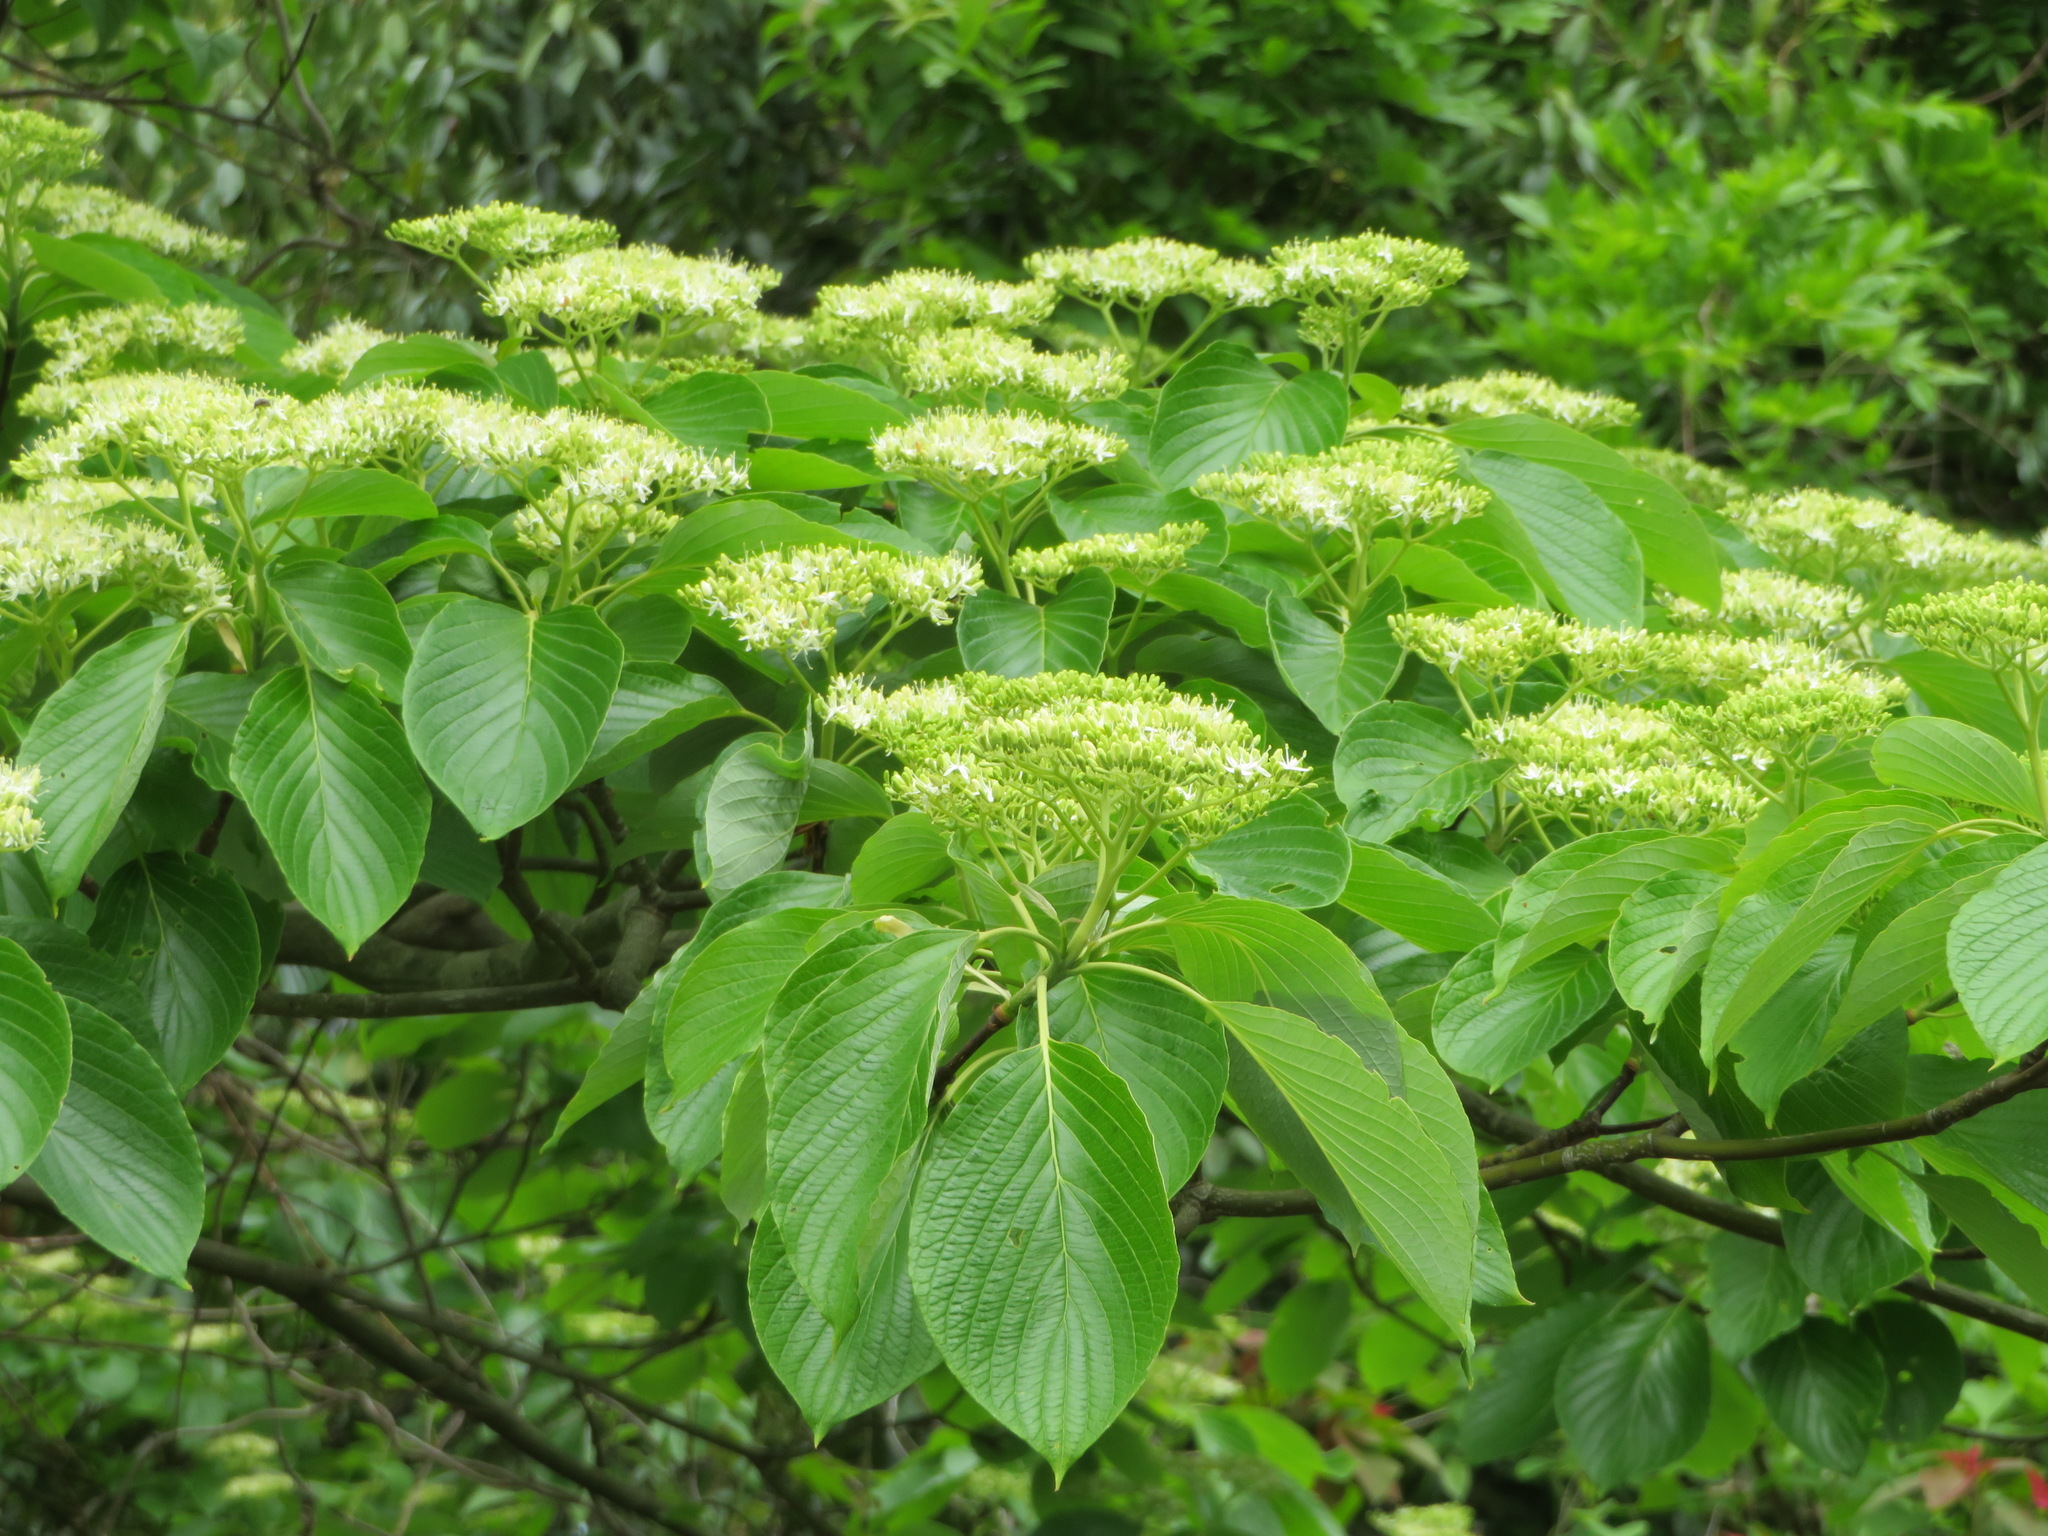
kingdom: Plantae
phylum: Tracheophyta
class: Magnoliopsida
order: Cornales
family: Cornaceae
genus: Cornus
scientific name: Cornus controversa
